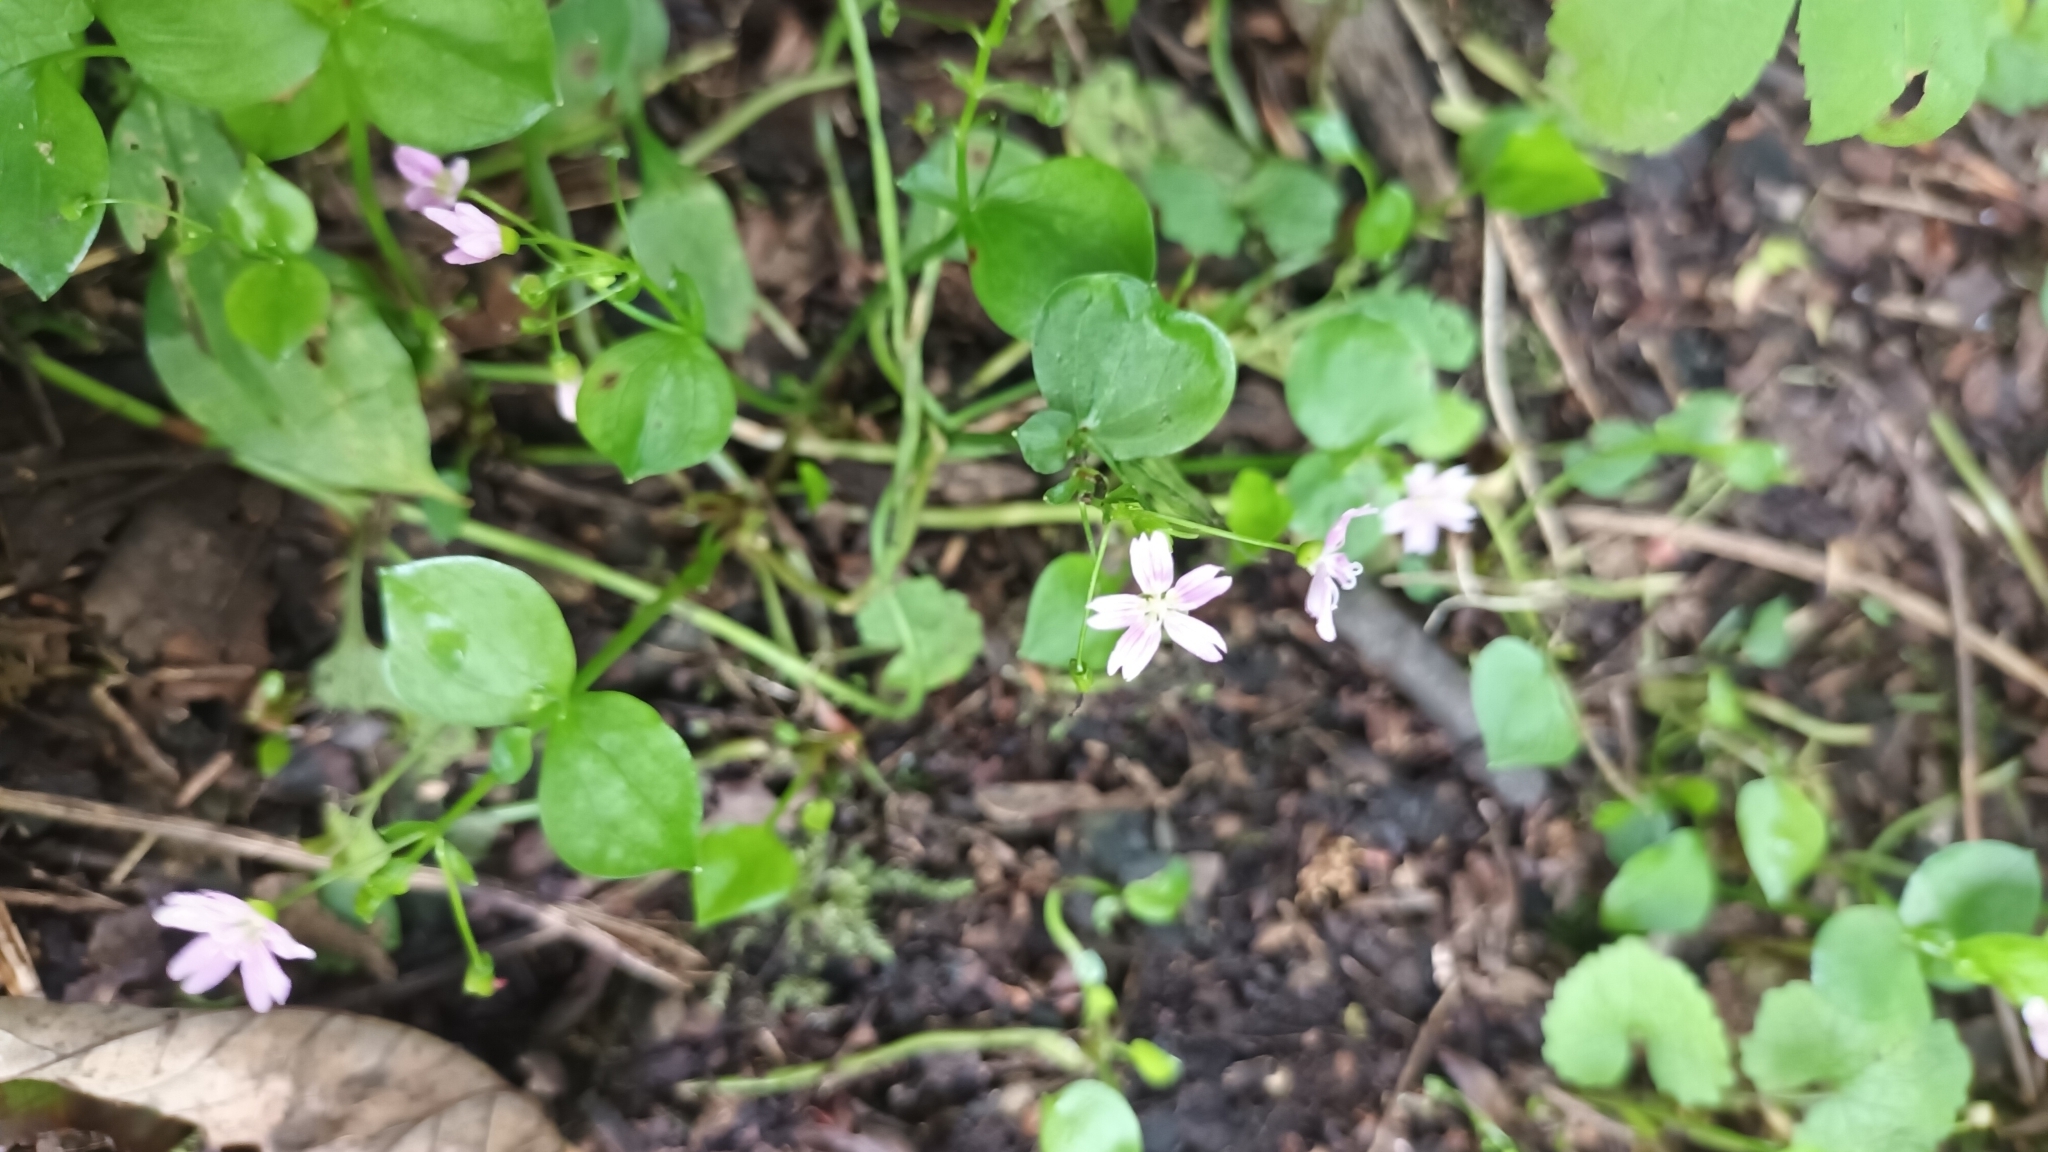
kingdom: Plantae
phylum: Tracheophyta
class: Magnoliopsida
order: Caryophyllales
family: Montiaceae
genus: Claytonia
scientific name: Claytonia sibirica
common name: Pink purslane
